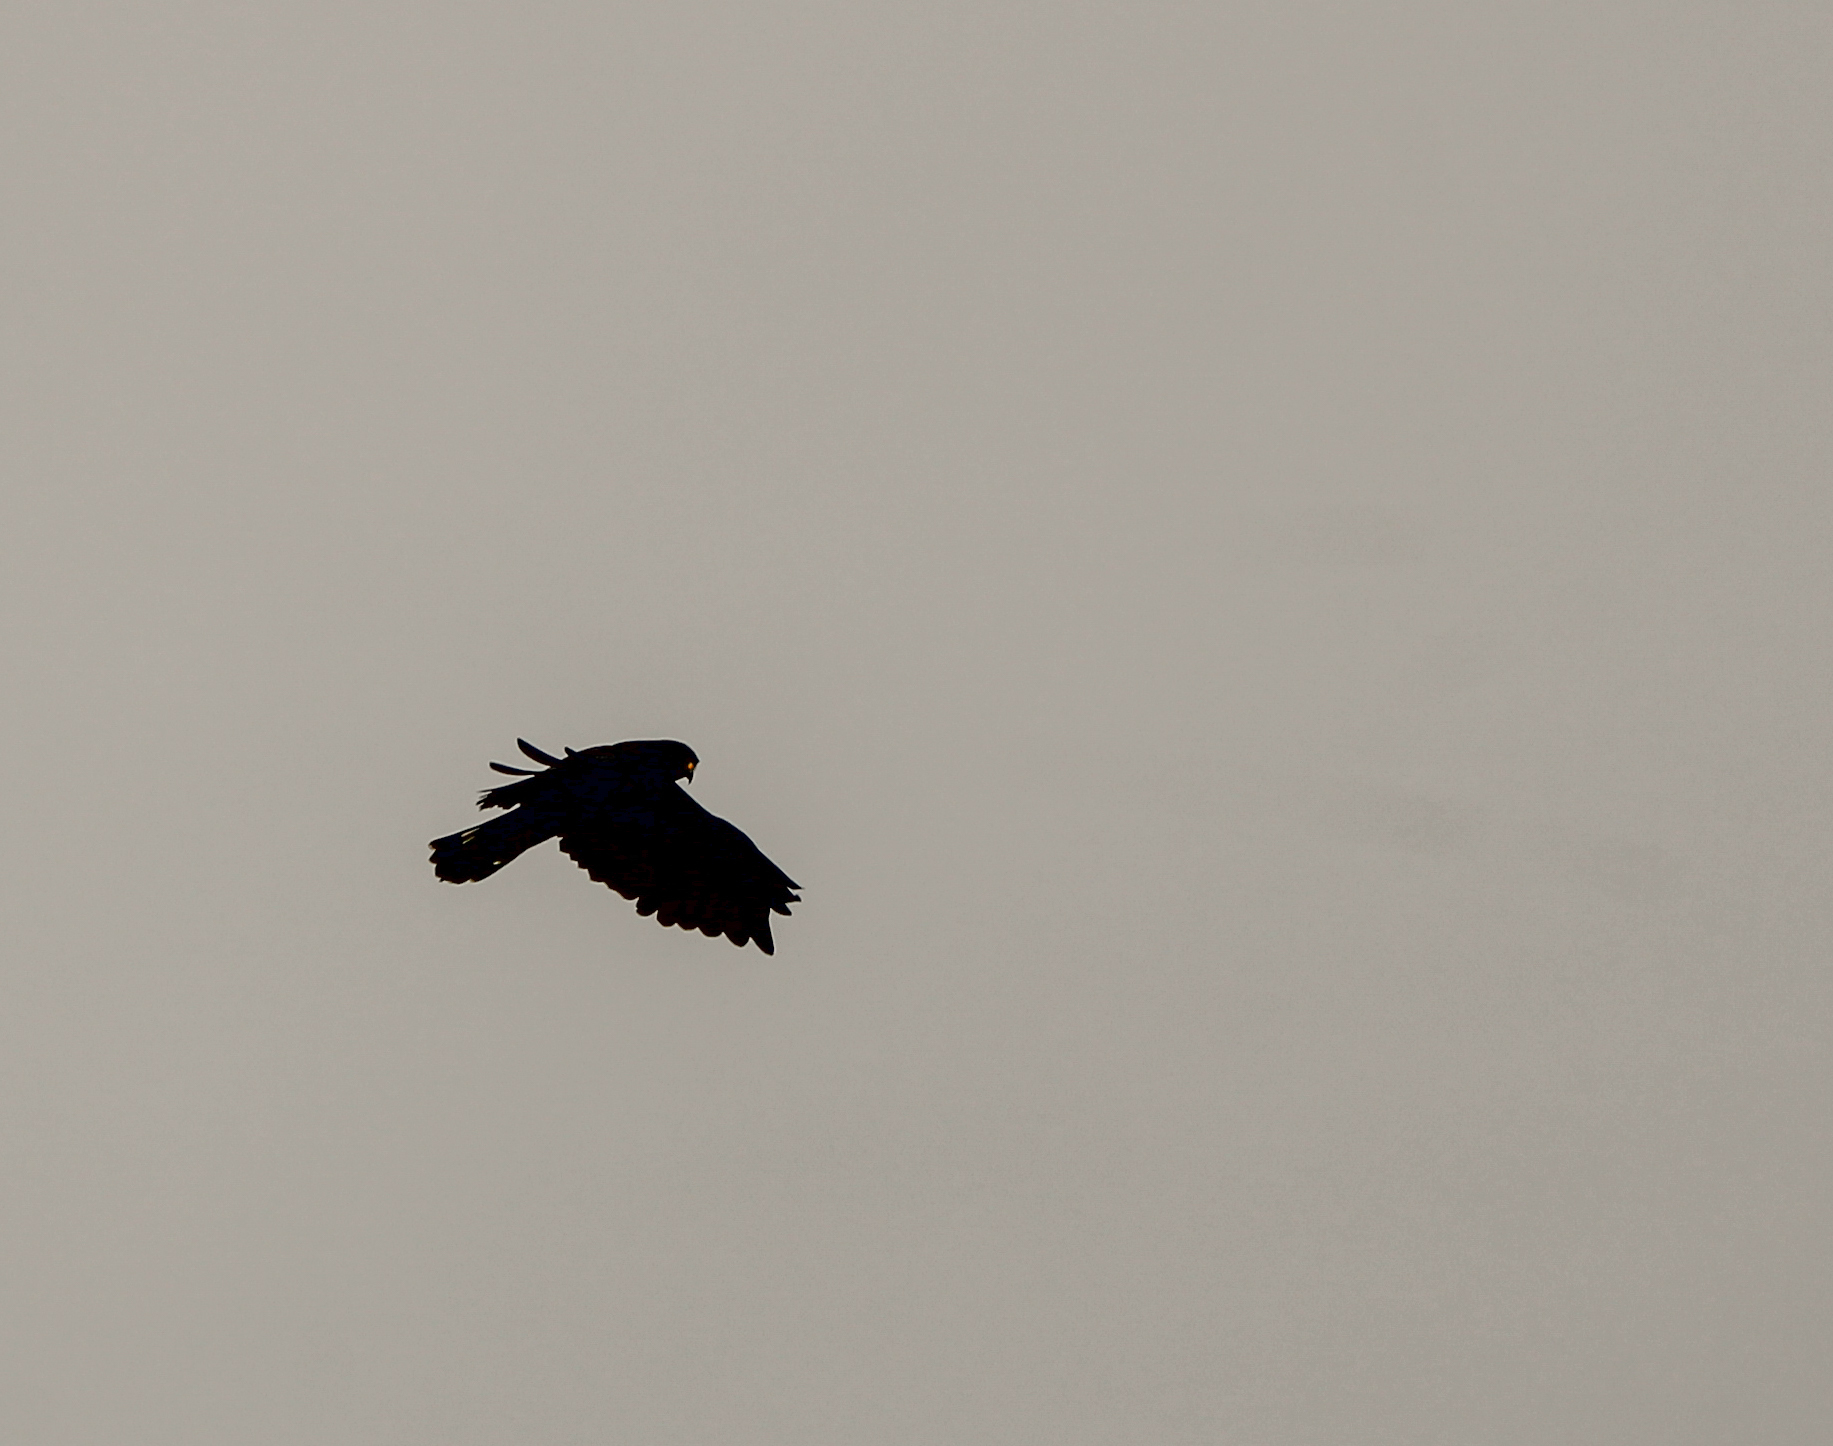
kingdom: Animalia
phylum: Chordata
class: Aves
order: Accipitriformes
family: Accipitridae
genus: Buteo
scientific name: Buteo albonotatus
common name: Zone-tailed hawk
